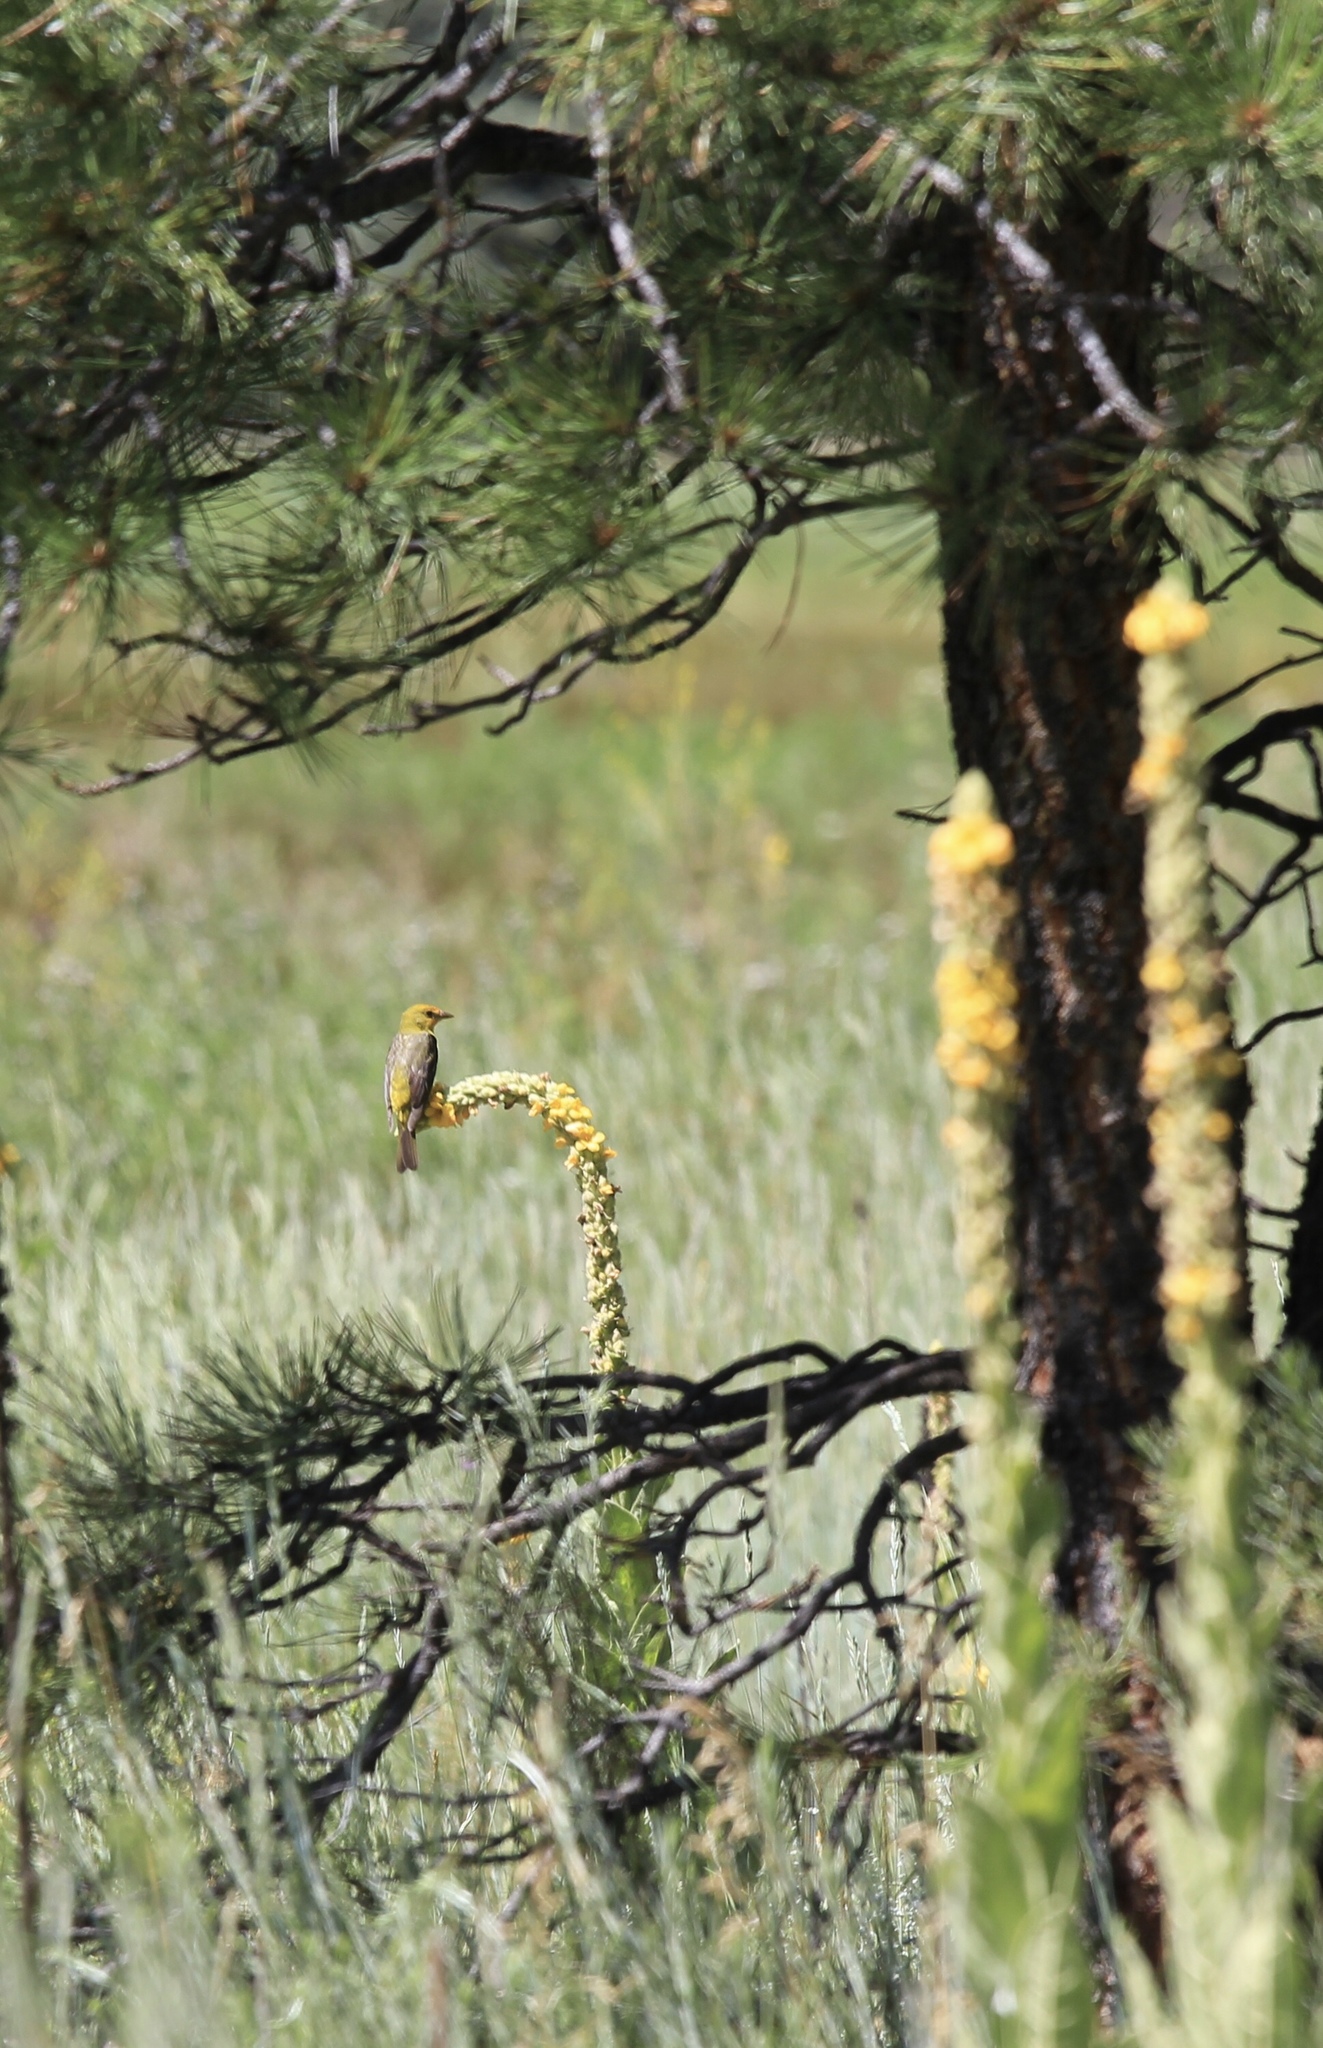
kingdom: Animalia
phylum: Chordata
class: Aves
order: Passeriformes
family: Cardinalidae
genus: Piranga
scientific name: Piranga ludoviciana
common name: Western tanager
